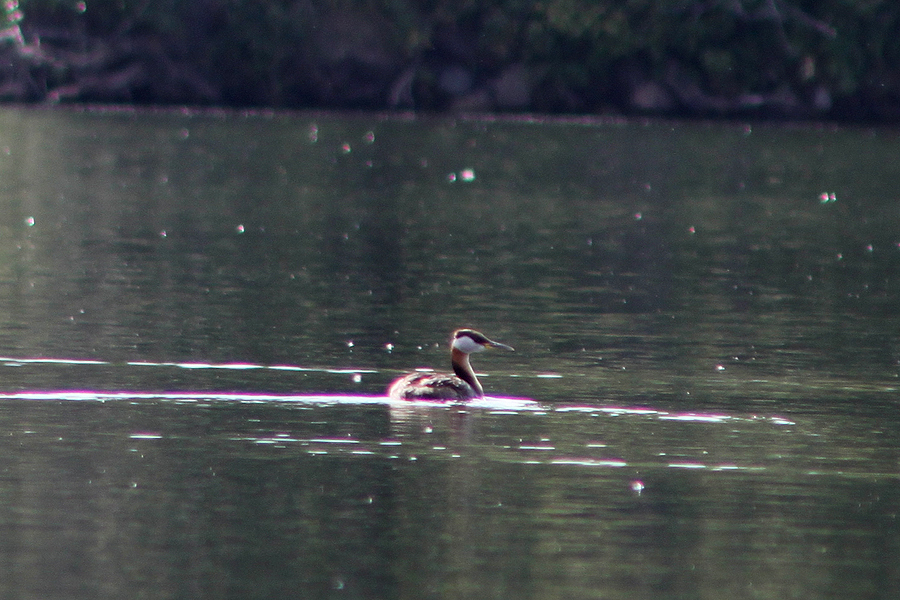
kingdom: Animalia
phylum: Chordata
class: Aves
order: Podicipediformes
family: Podicipedidae
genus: Podiceps
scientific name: Podiceps grisegena
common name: Red-necked grebe
